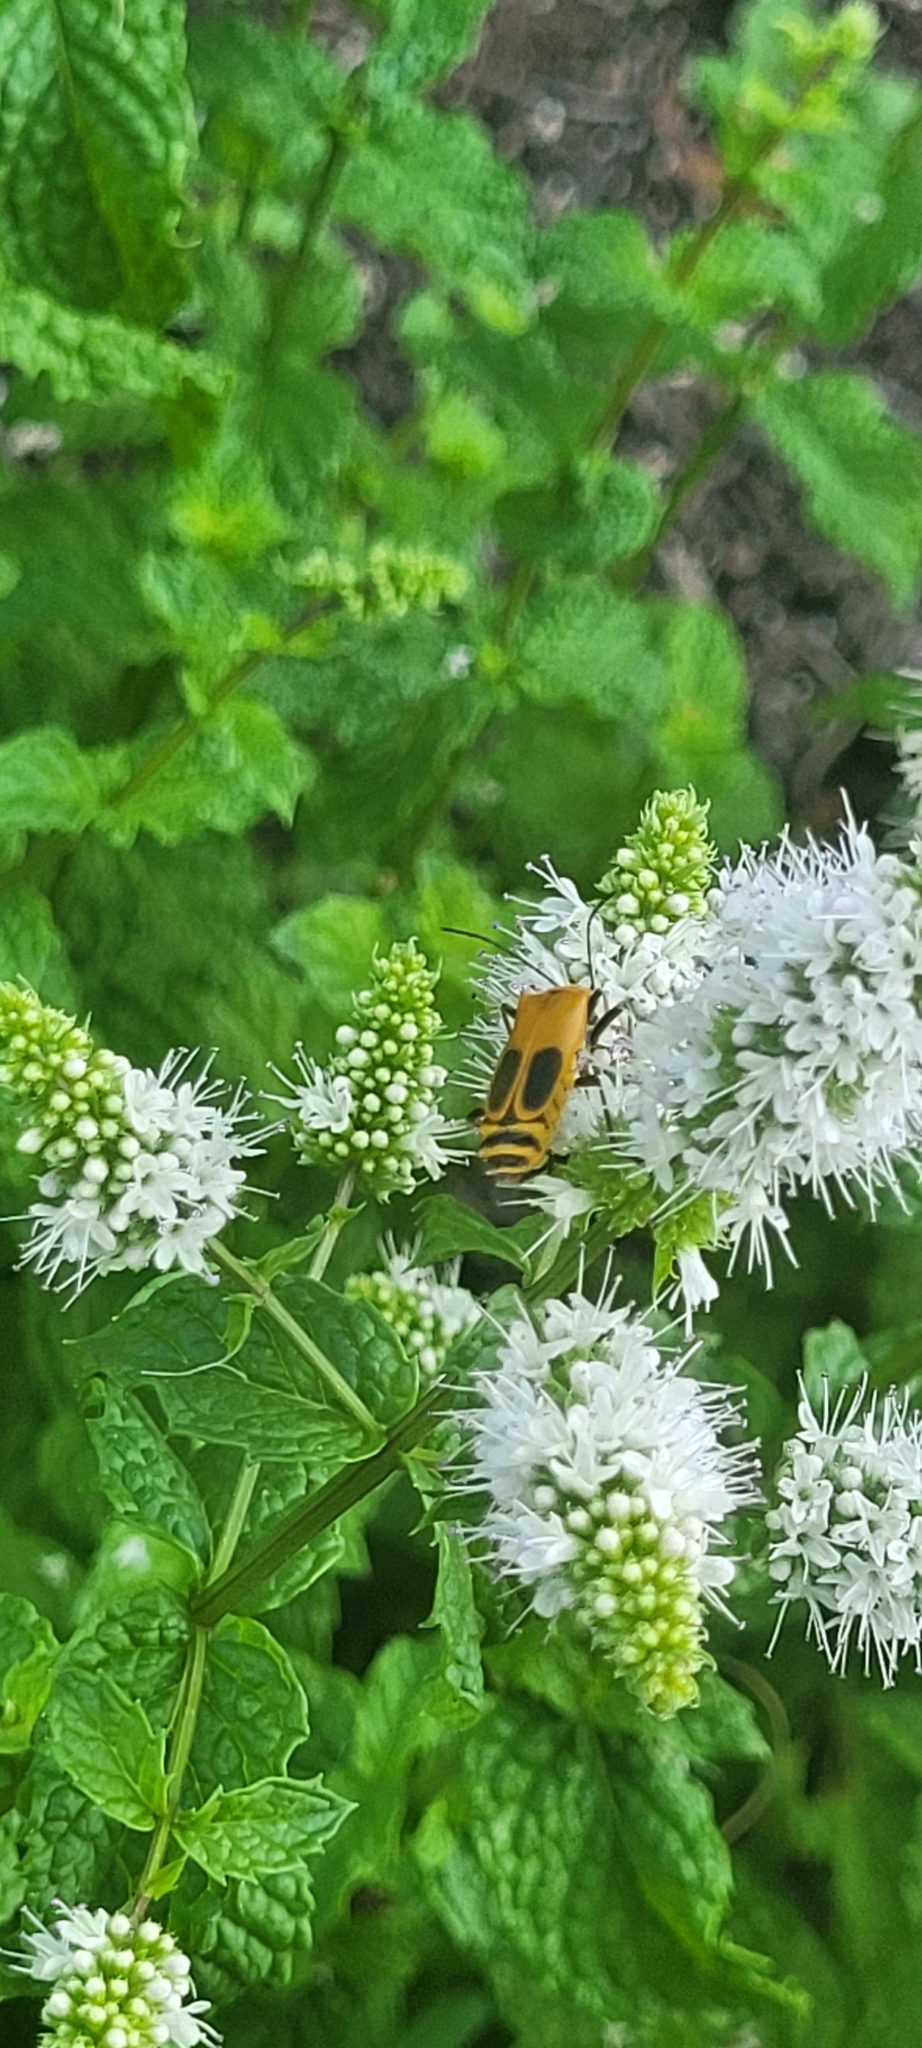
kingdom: Animalia
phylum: Arthropoda
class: Insecta
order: Coleoptera
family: Cantharidae
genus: Chauliognathus
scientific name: Chauliognathus pensylvanicus
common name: Goldenrod soldier beetle
